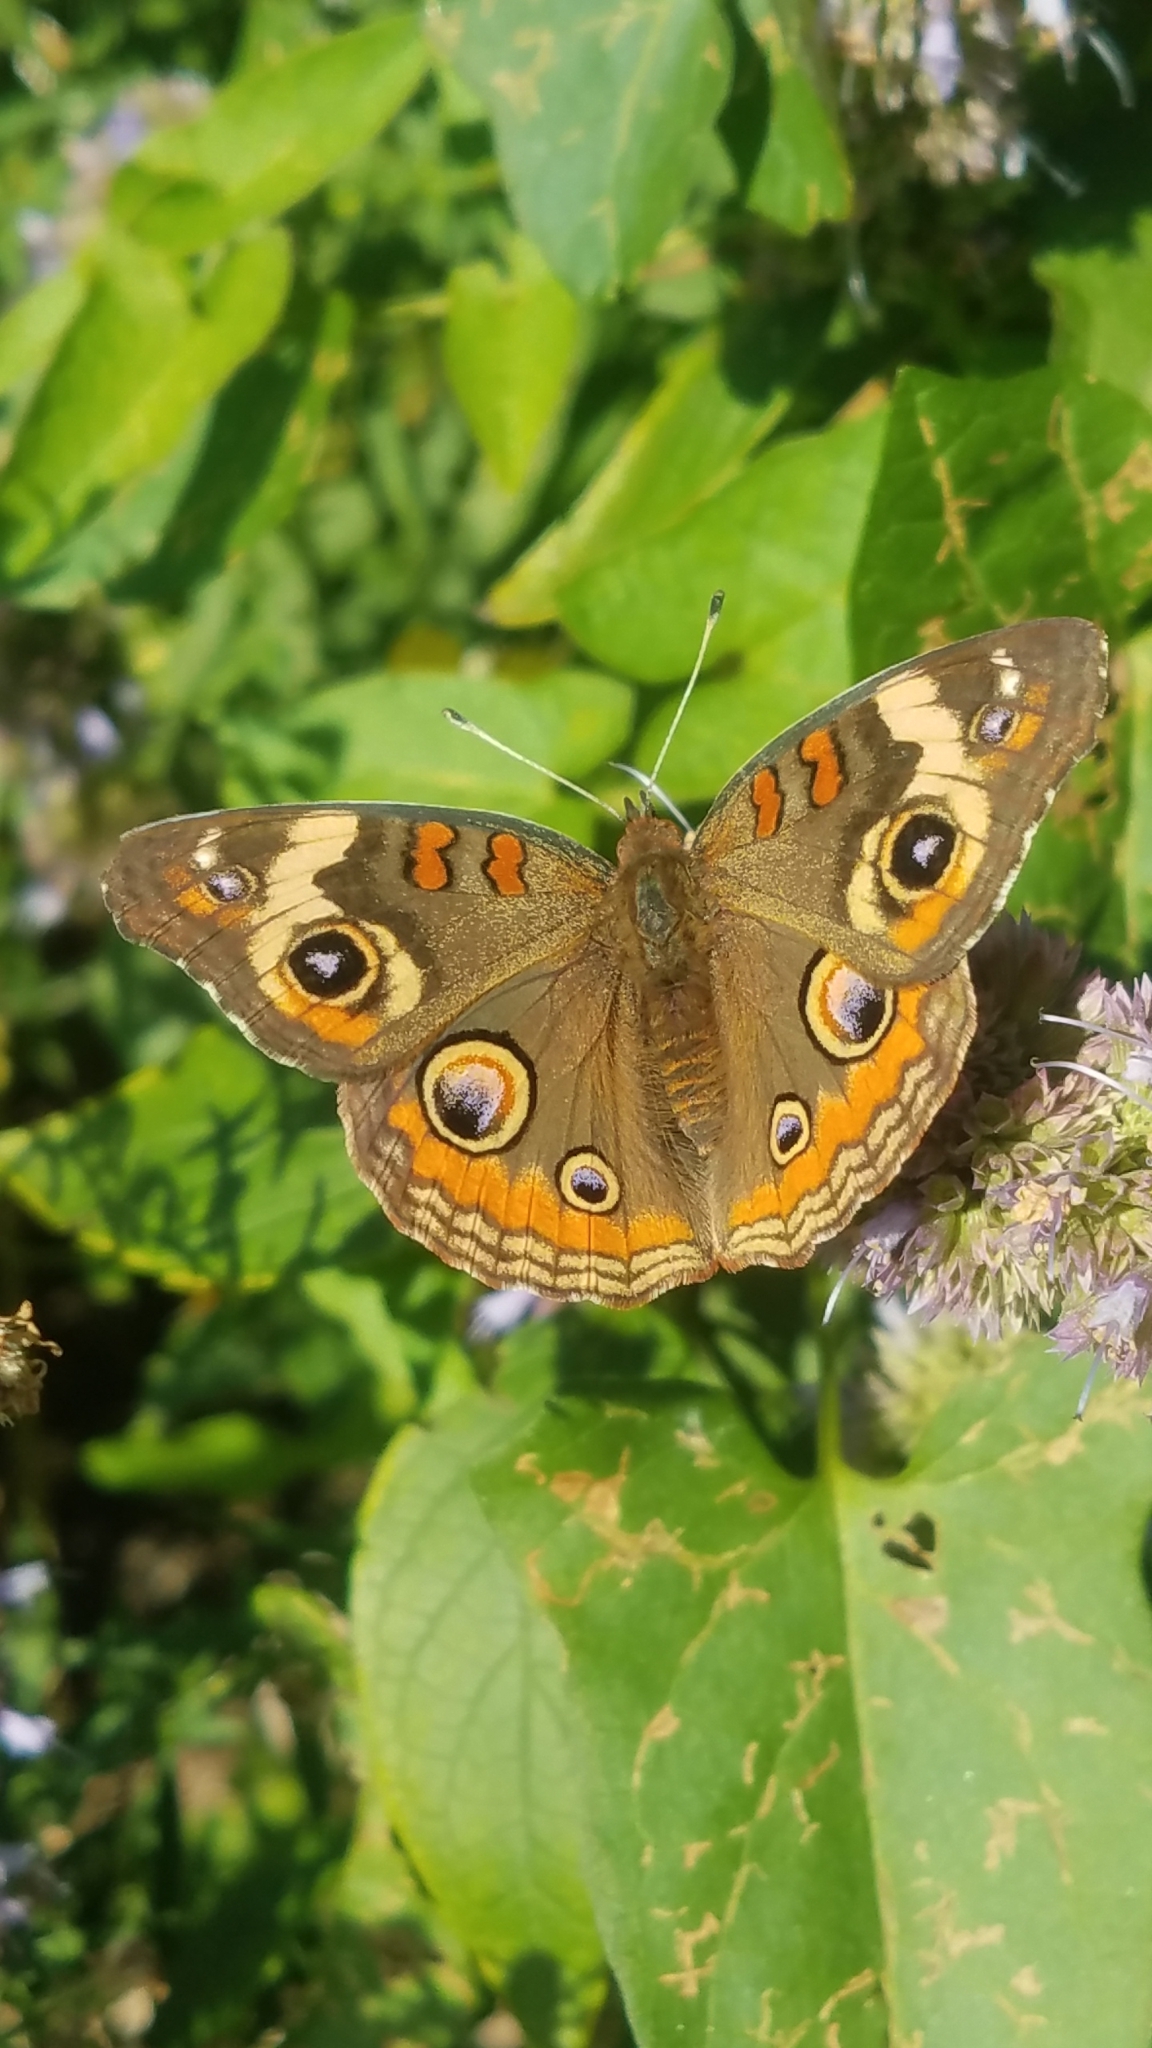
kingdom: Animalia
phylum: Arthropoda
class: Insecta
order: Lepidoptera
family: Nymphalidae
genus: Junonia
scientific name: Junonia coenia
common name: Common buckeye
